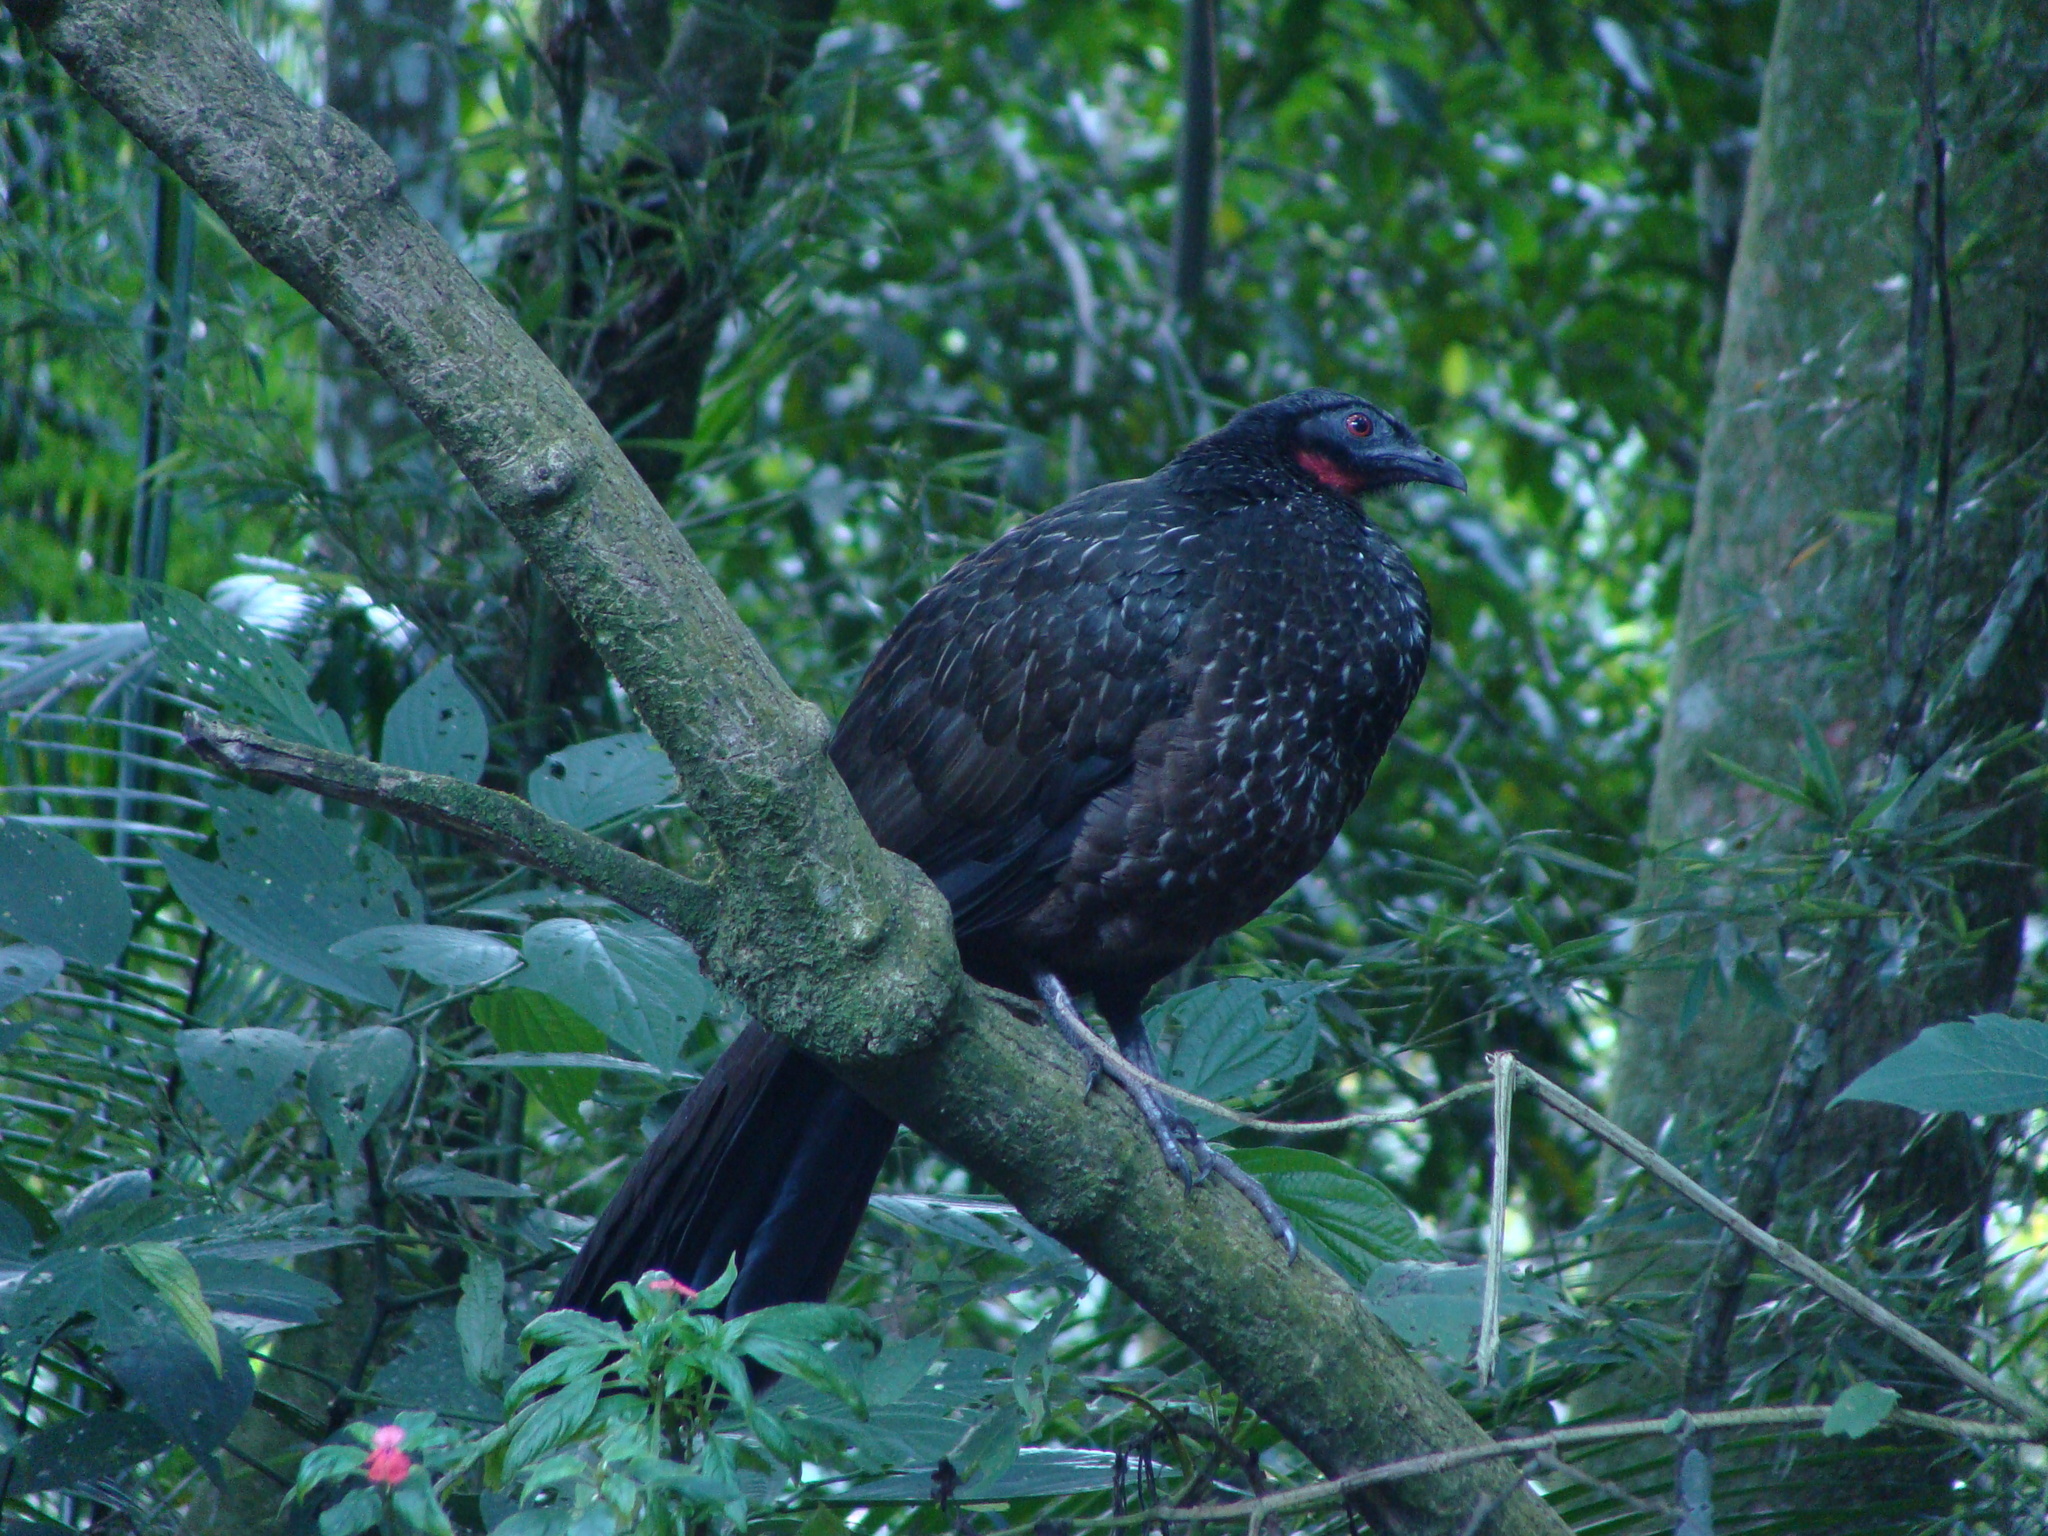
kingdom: Animalia
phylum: Chordata
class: Aves
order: Galliformes
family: Cracidae
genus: Penelope
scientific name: Penelope obscura
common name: Dusky-legged guan
